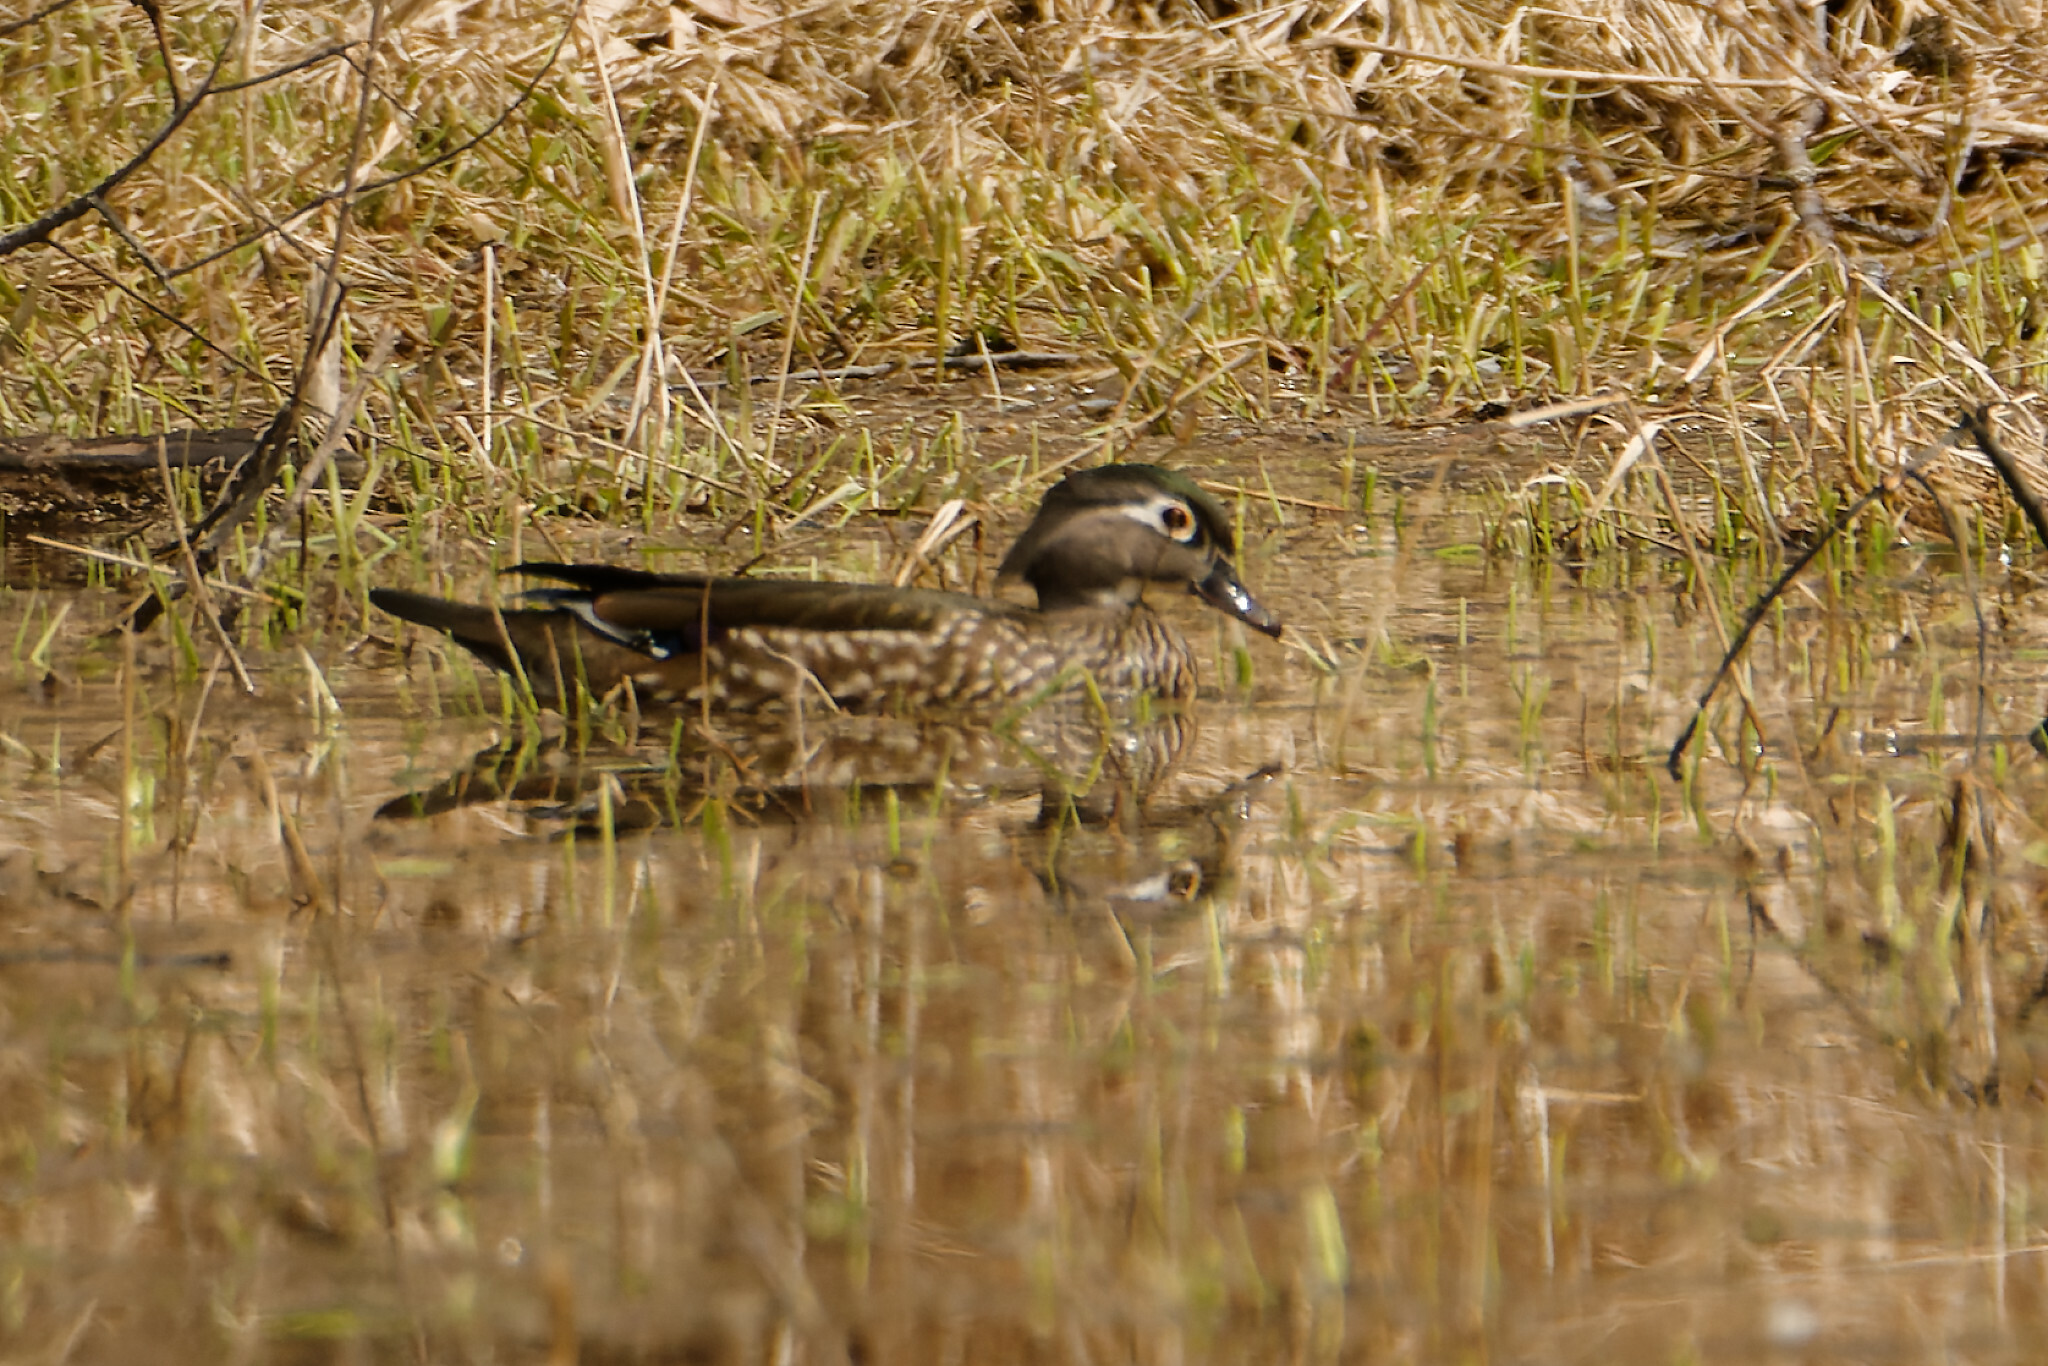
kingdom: Animalia
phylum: Chordata
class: Aves
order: Anseriformes
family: Anatidae
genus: Aix
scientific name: Aix sponsa
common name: Wood duck
